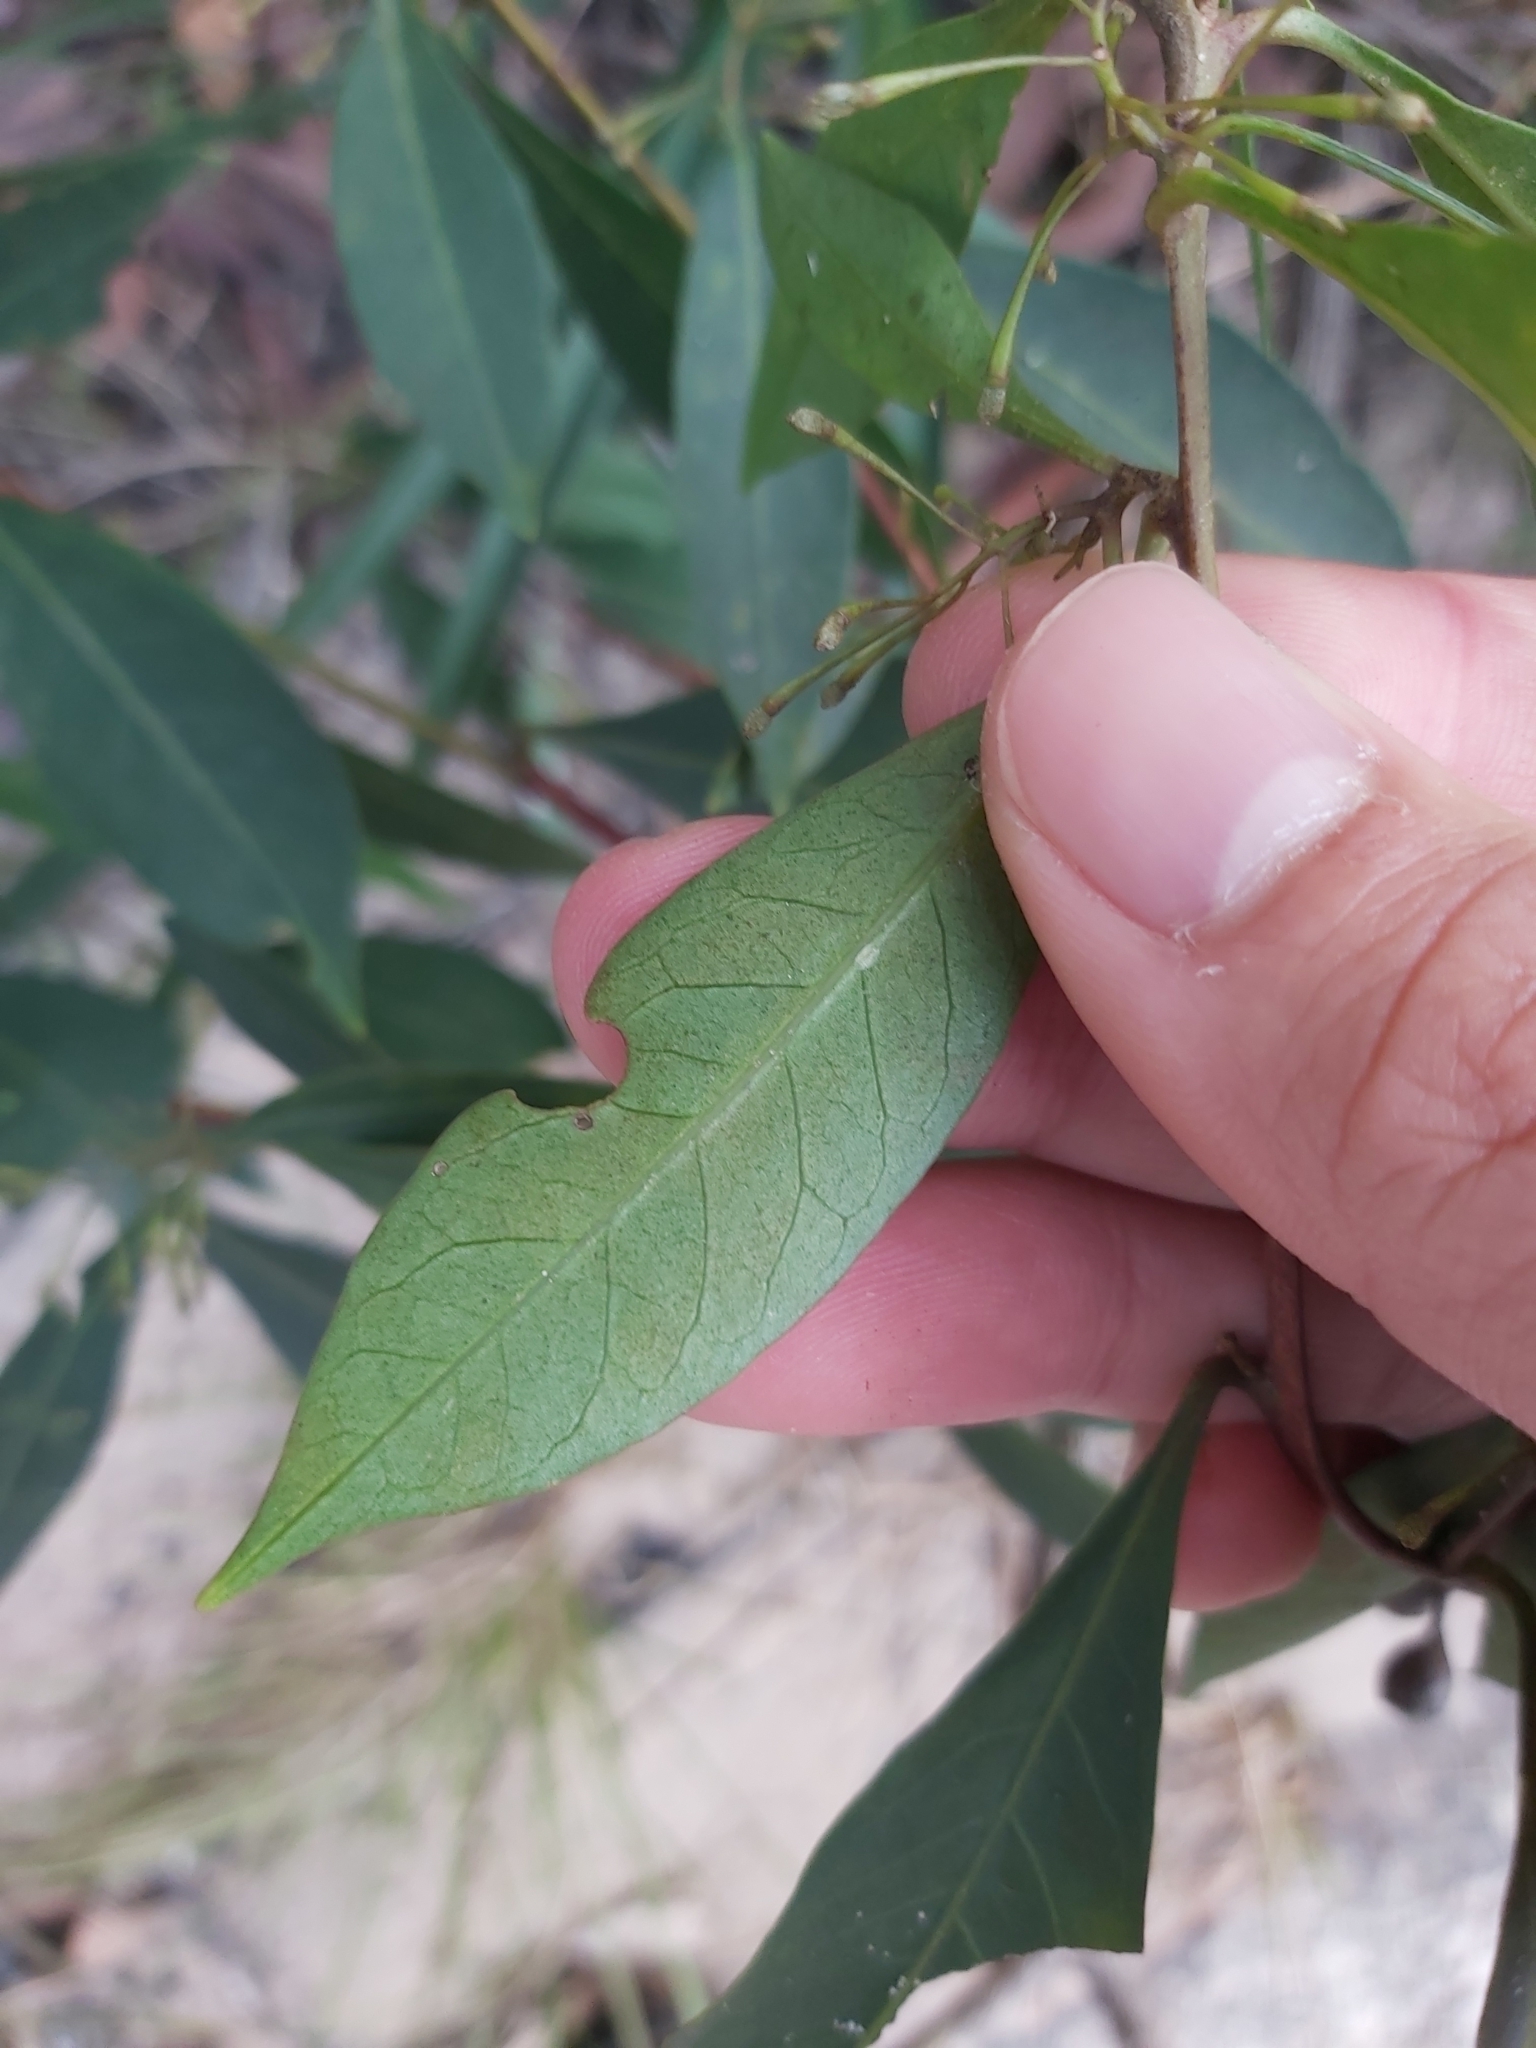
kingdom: Plantae
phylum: Tracheophyta
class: Magnoliopsida
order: Sapindales
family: Sapindaceae
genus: Dodonaea
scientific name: Dodonaea triquetra
